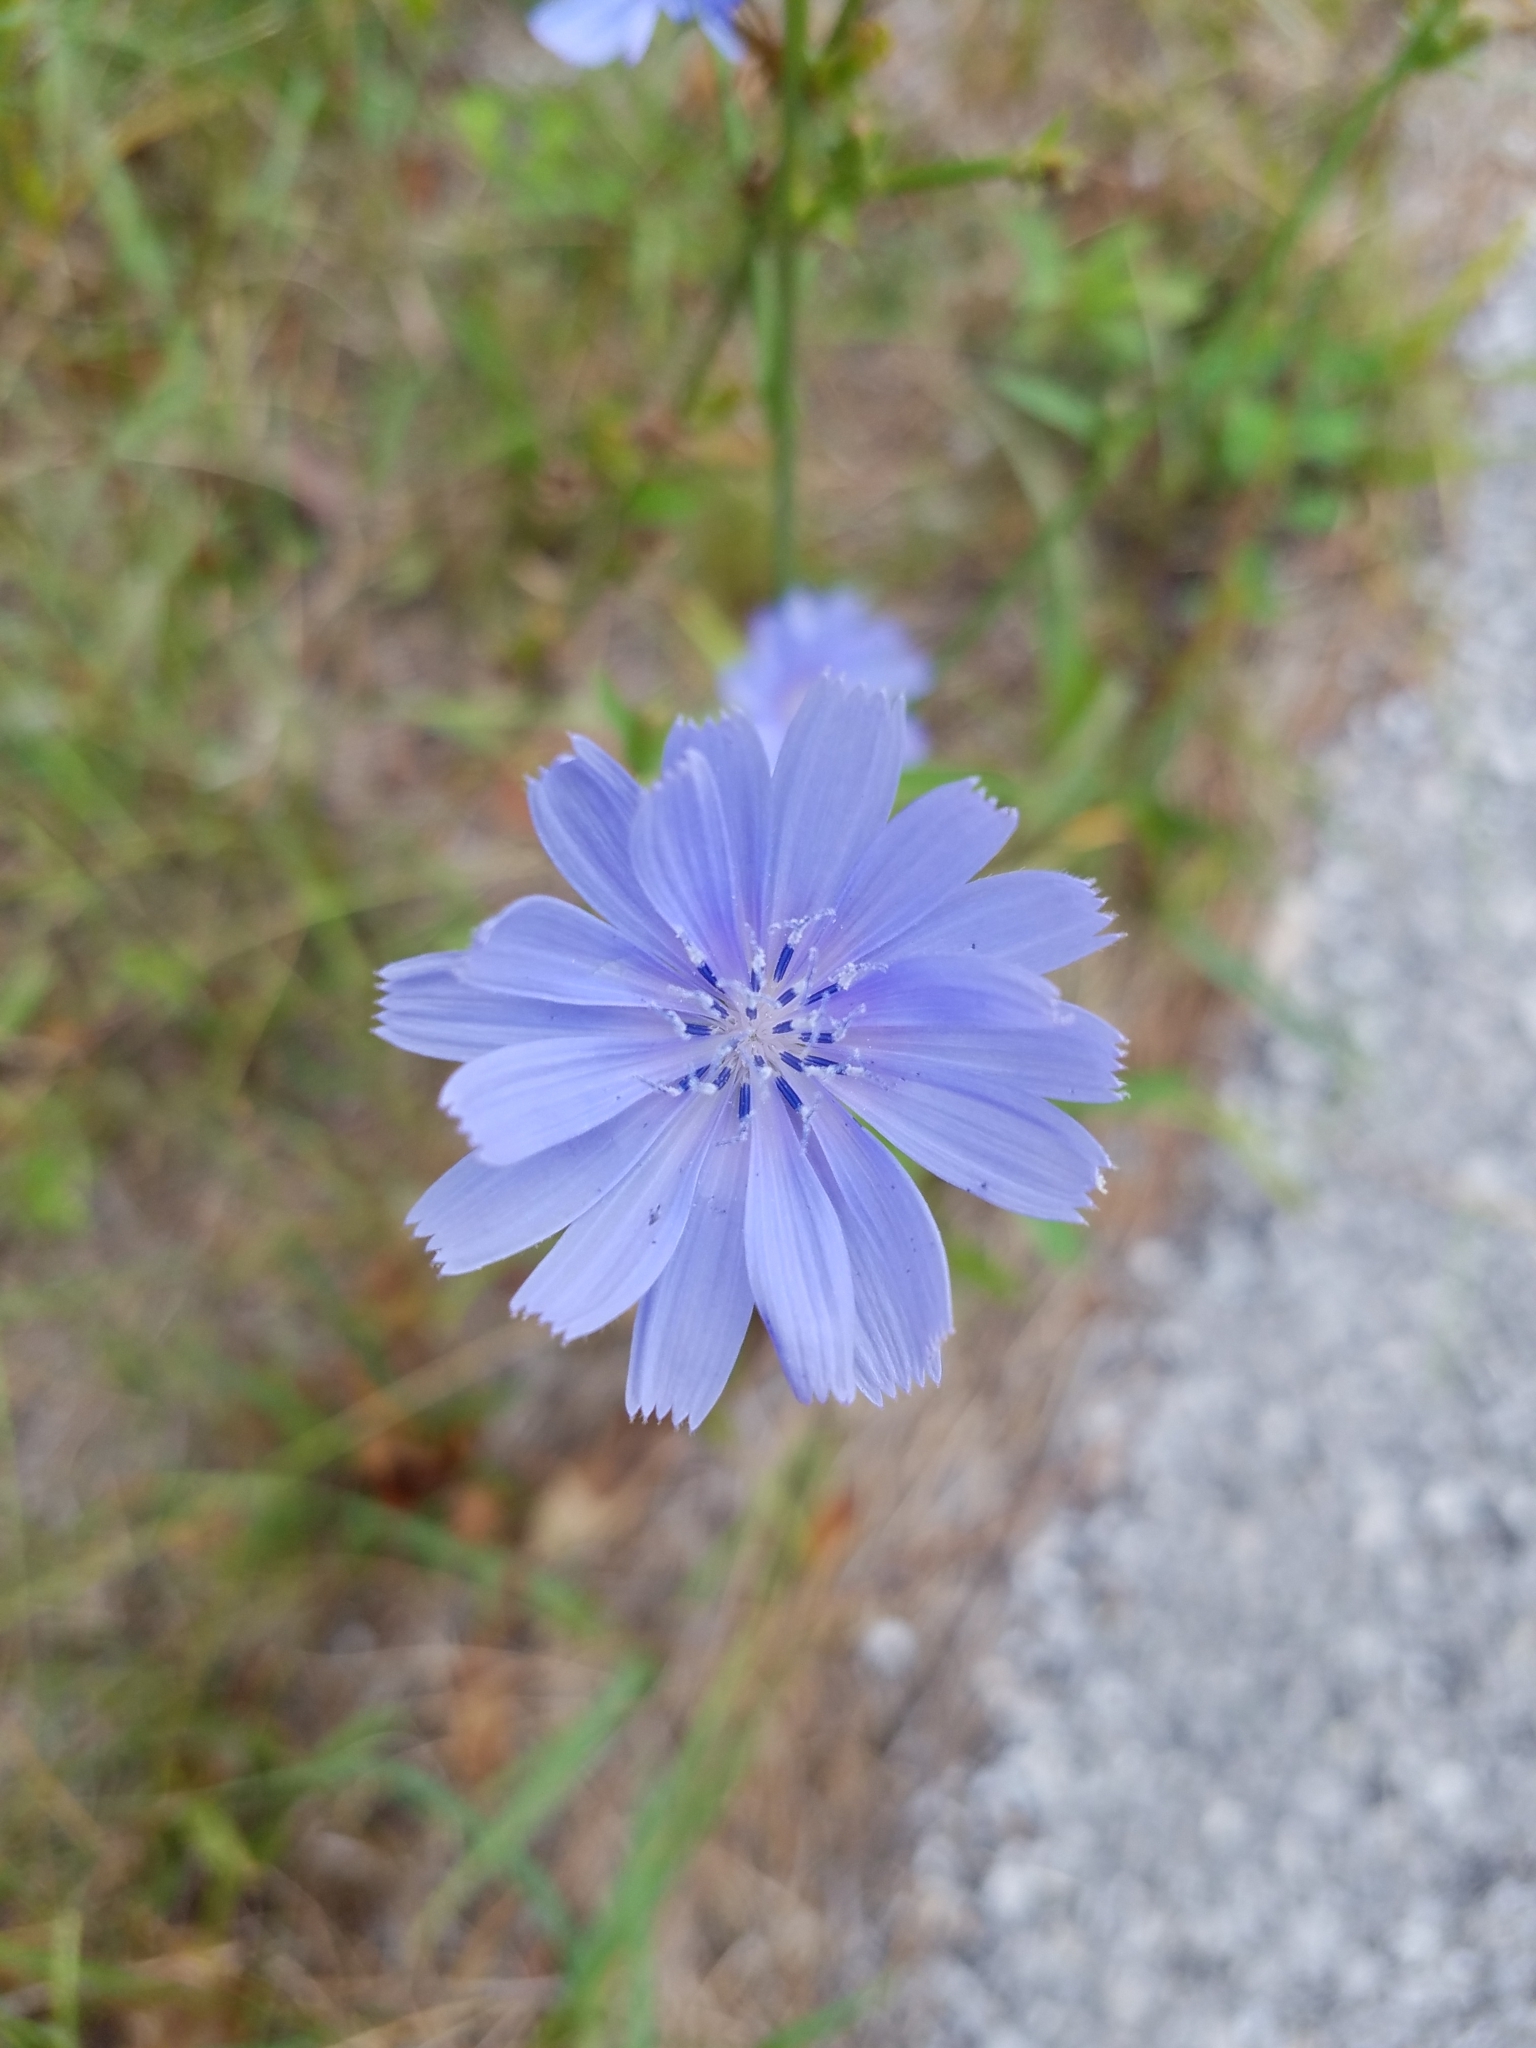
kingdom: Plantae
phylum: Tracheophyta
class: Magnoliopsida
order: Asterales
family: Asteraceae
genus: Cichorium
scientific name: Cichorium intybus
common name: Chicory
